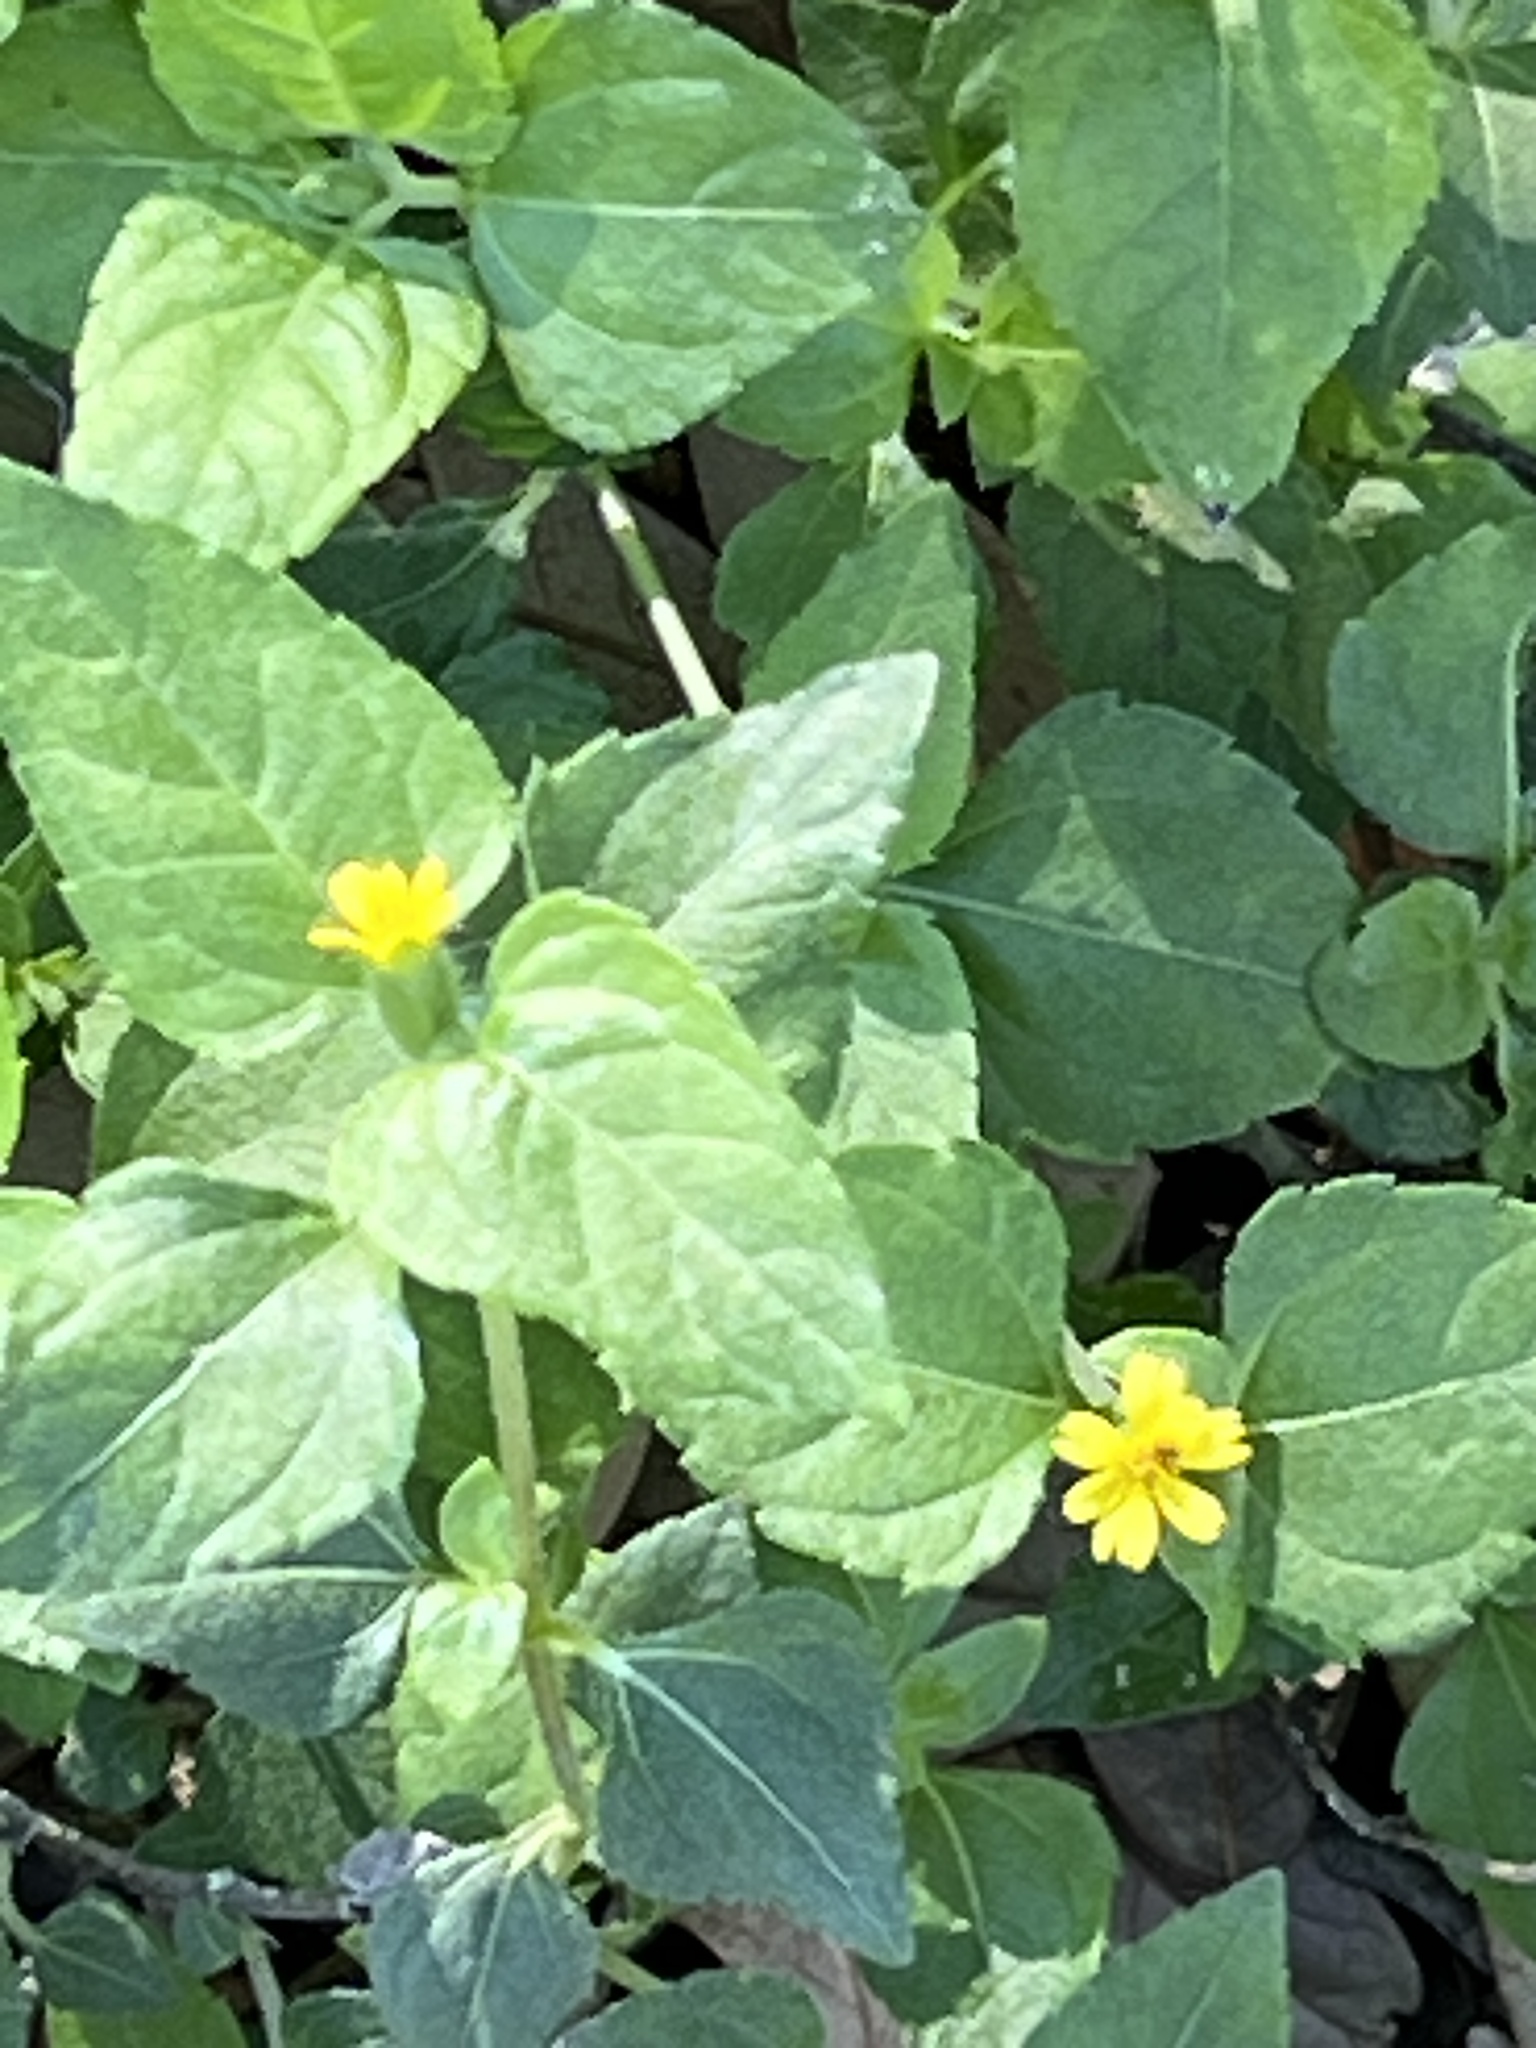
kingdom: Plantae
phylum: Tracheophyta
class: Magnoliopsida
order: Asterales
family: Asteraceae
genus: Calyptocarpus
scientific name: Calyptocarpus vialis
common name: Straggler daisy
